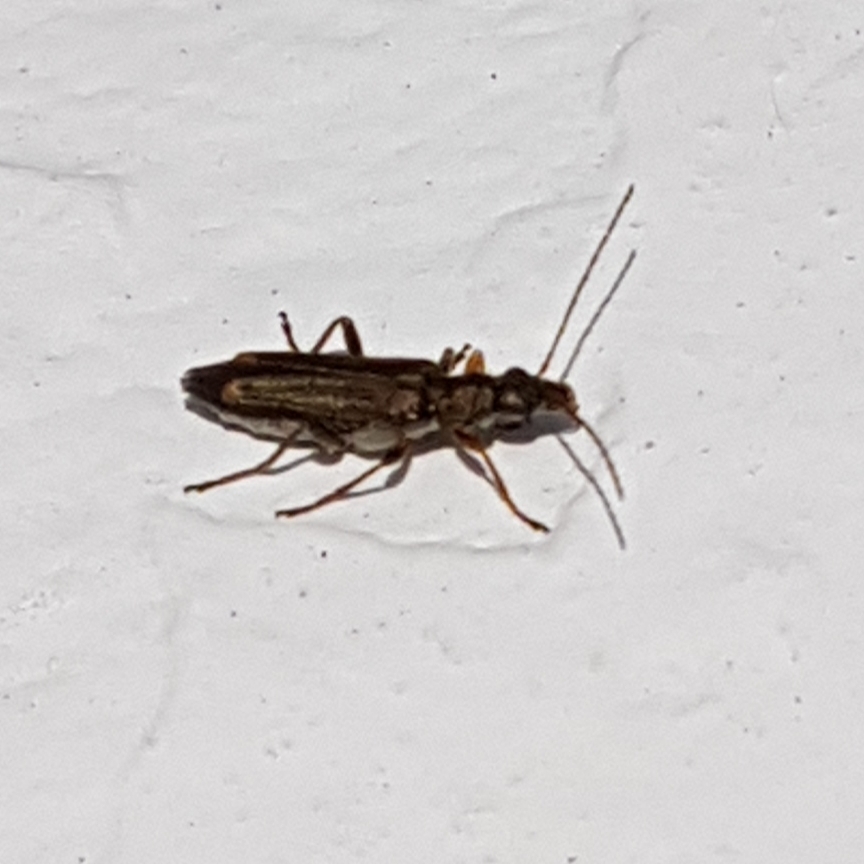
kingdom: Animalia
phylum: Arthropoda
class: Insecta
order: Coleoptera
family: Oedemeridae
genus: Oedemera
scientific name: Oedemera barbara
